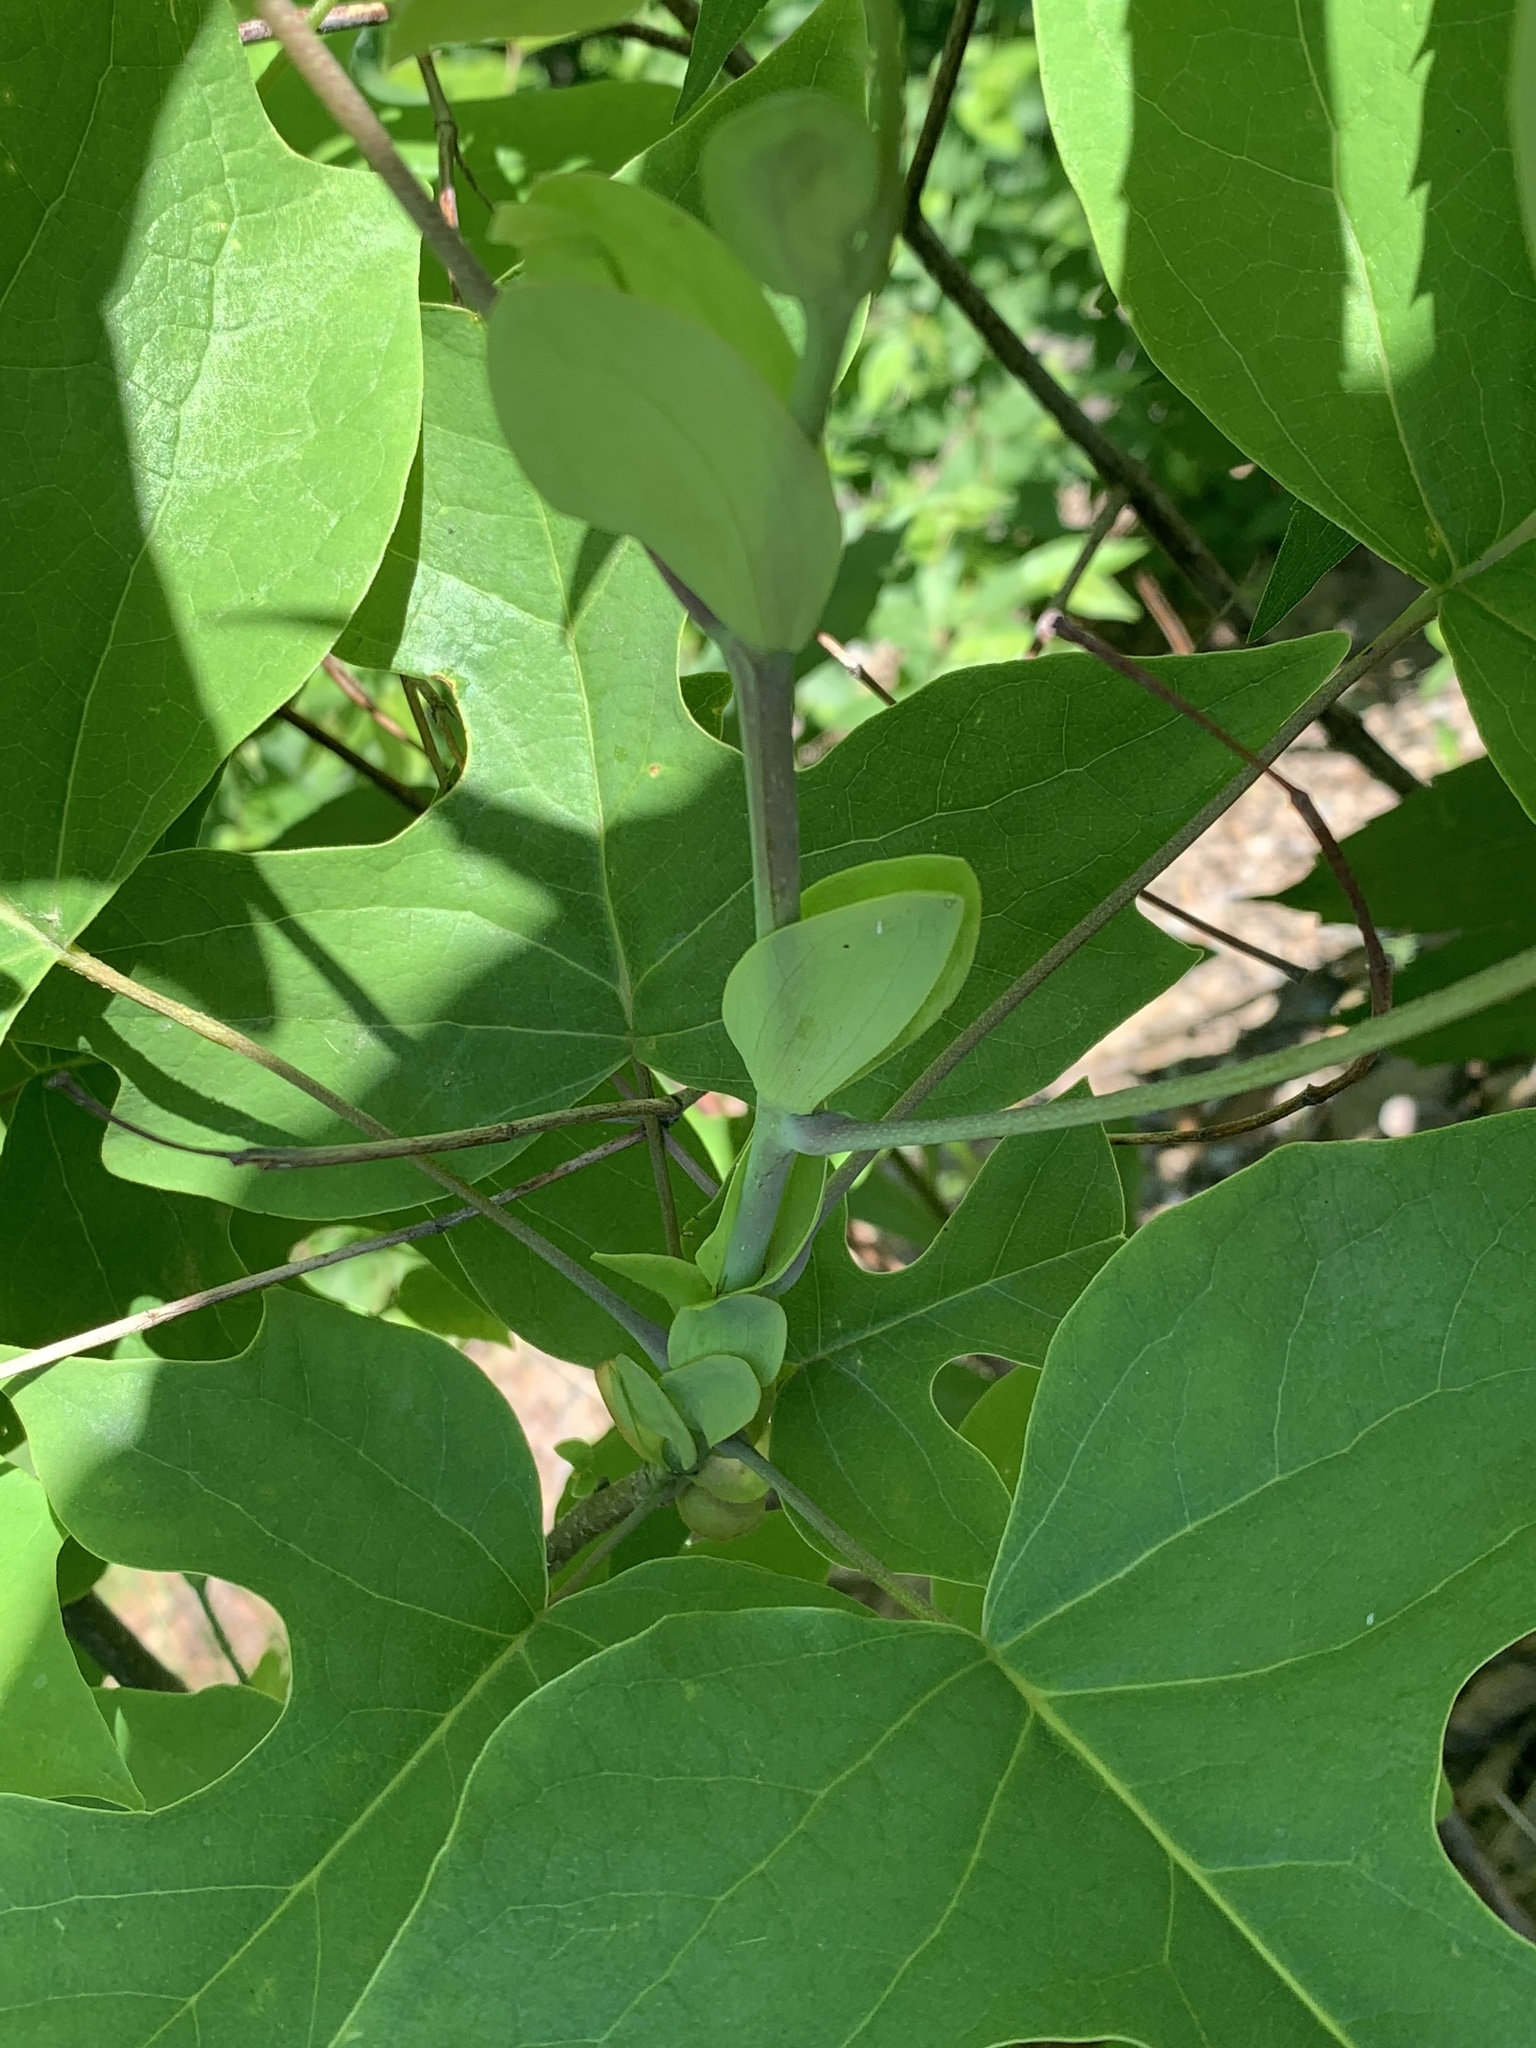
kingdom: Plantae
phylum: Tracheophyta
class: Magnoliopsida
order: Magnoliales
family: Magnoliaceae
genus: Liriodendron
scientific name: Liriodendron tulipifera
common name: Tulip tree
